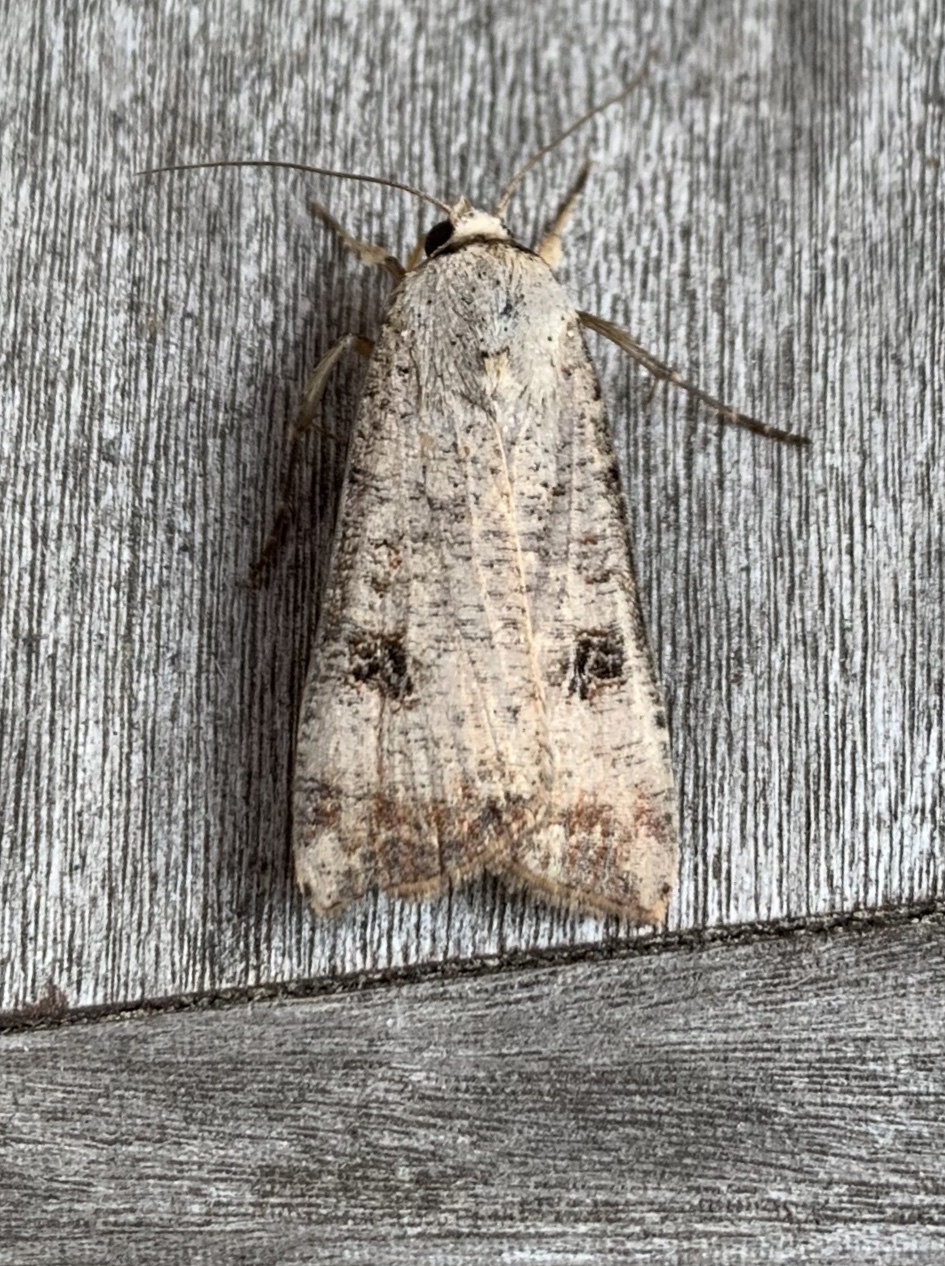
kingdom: Animalia
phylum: Arthropoda
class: Insecta
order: Lepidoptera
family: Noctuidae
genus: Anicla
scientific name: Anicla infecta
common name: Green cutworm
